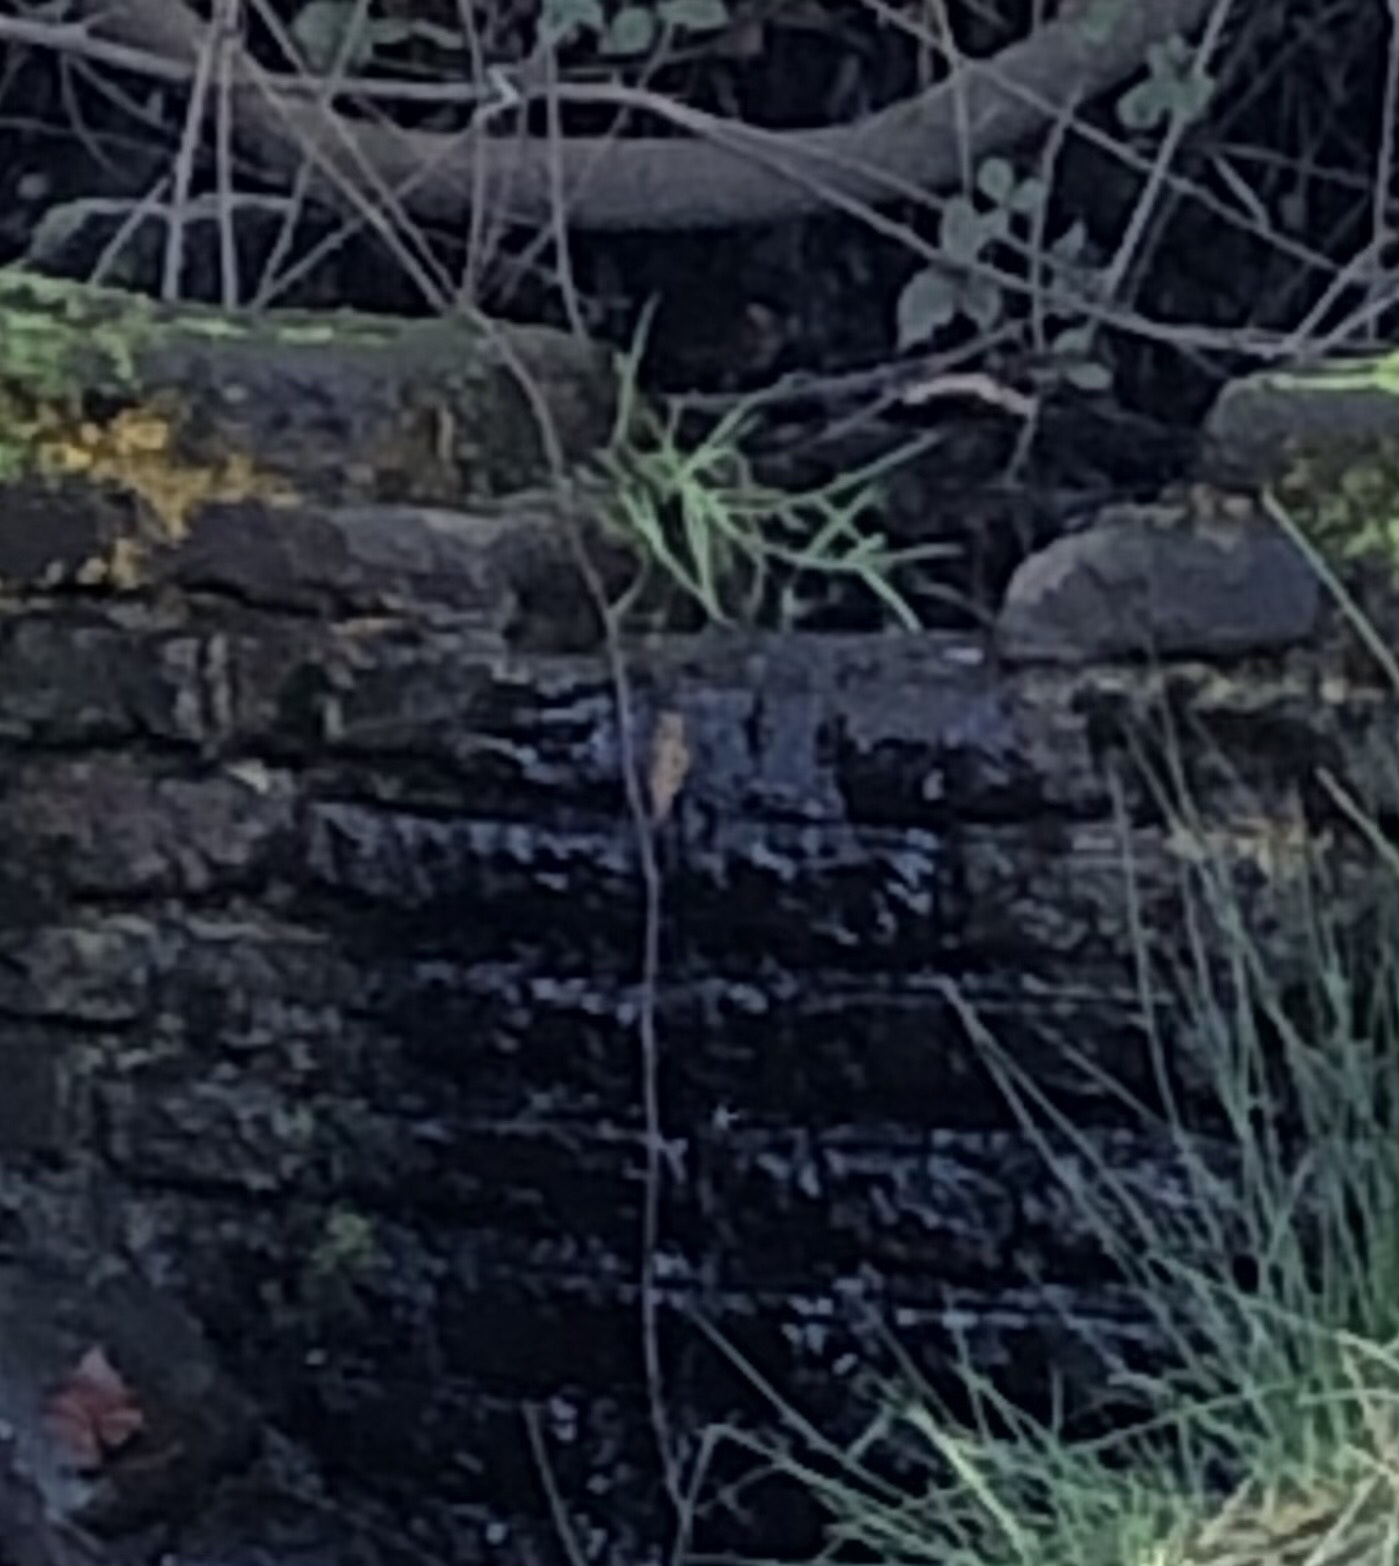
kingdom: Animalia
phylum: Chordata
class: Aves
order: Apodiformes
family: Trochilidae
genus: Selasphorus
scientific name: Selasphorus
